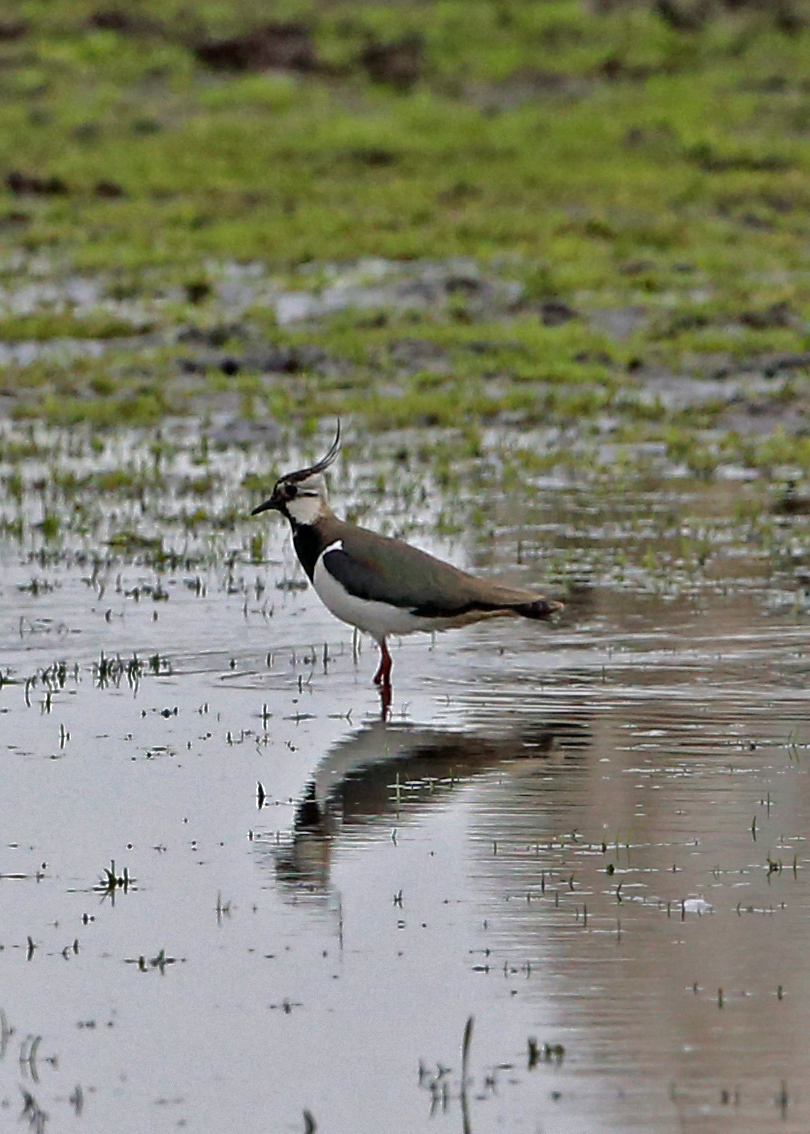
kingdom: Animalia
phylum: Chordata
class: Aves
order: Charadriiformes
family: Charadriidae
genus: Vanellus
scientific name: Vanellus vanellus
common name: Northern lapwing
